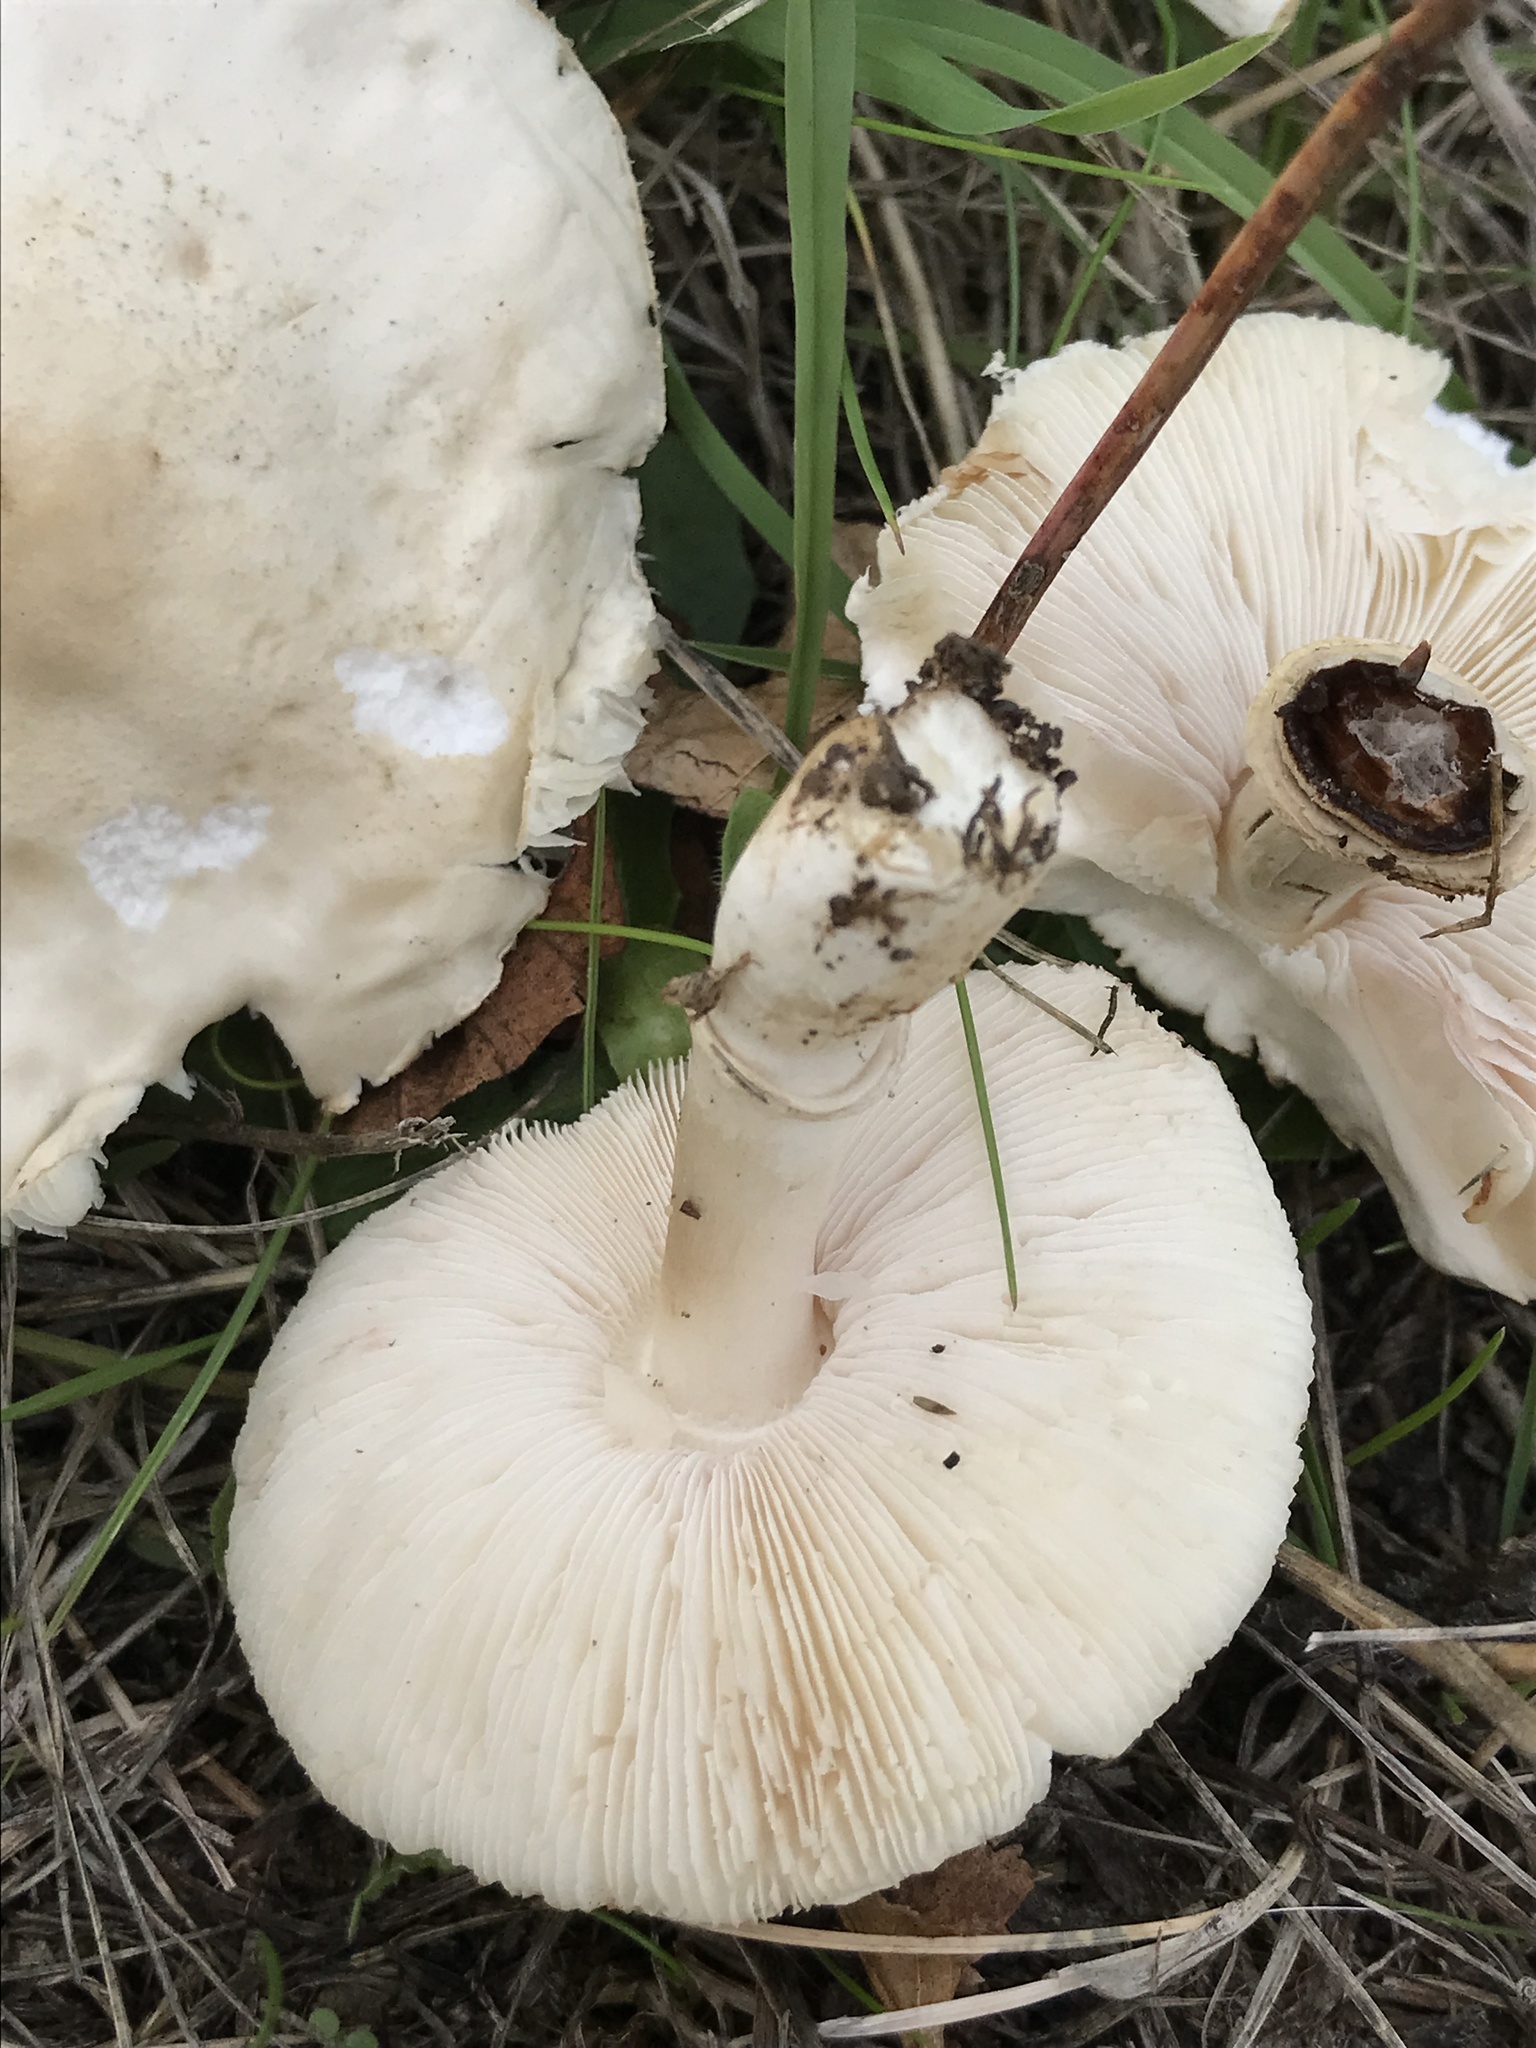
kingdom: Fungi
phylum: Basidiomycota
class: Agaricomycetes
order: Agaricales
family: Agaricaceae
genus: Leucoagaricus
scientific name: Leucoagaricus leucothites
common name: White dapperling
